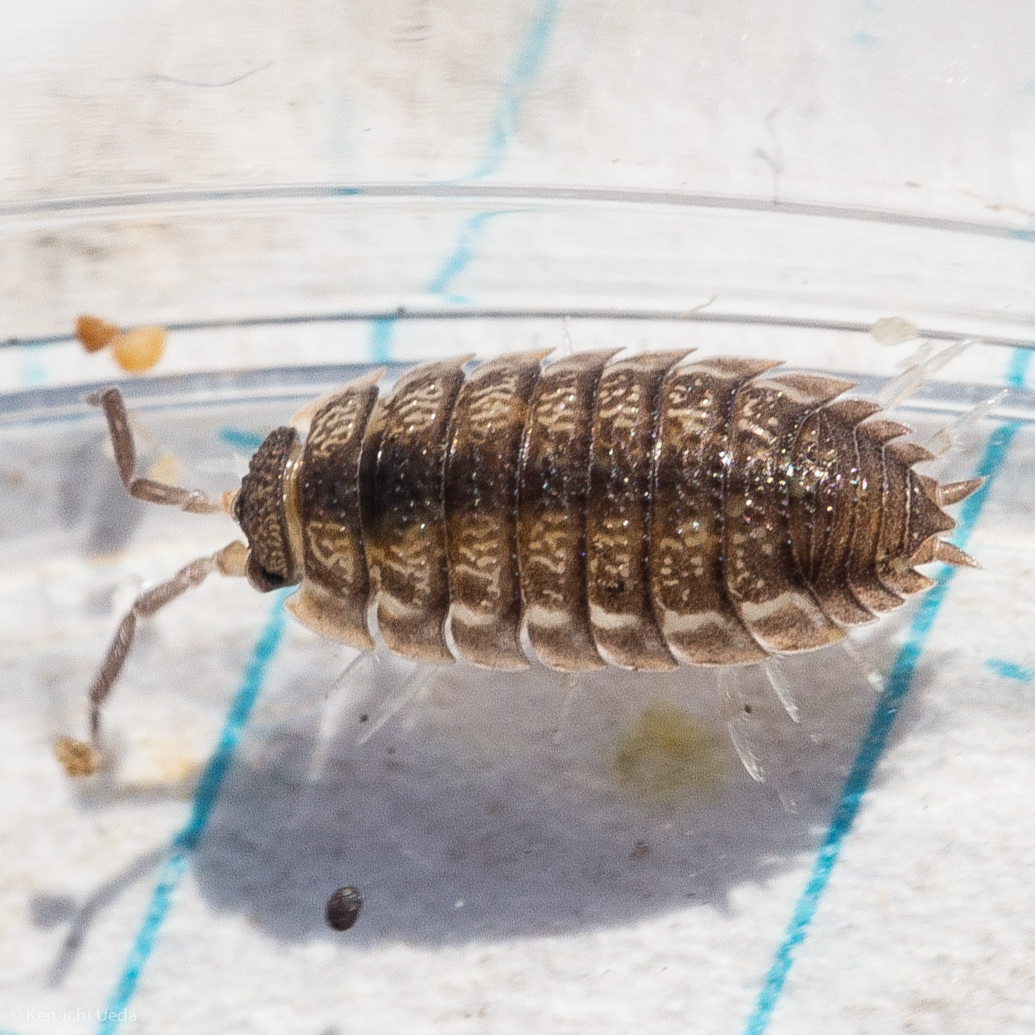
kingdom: Animalia
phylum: Arthropoda
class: Malacostraca
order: Isopoda
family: Porcellionidae
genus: Porcellio
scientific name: Porcellio scaber
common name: Common rough woodlouse
